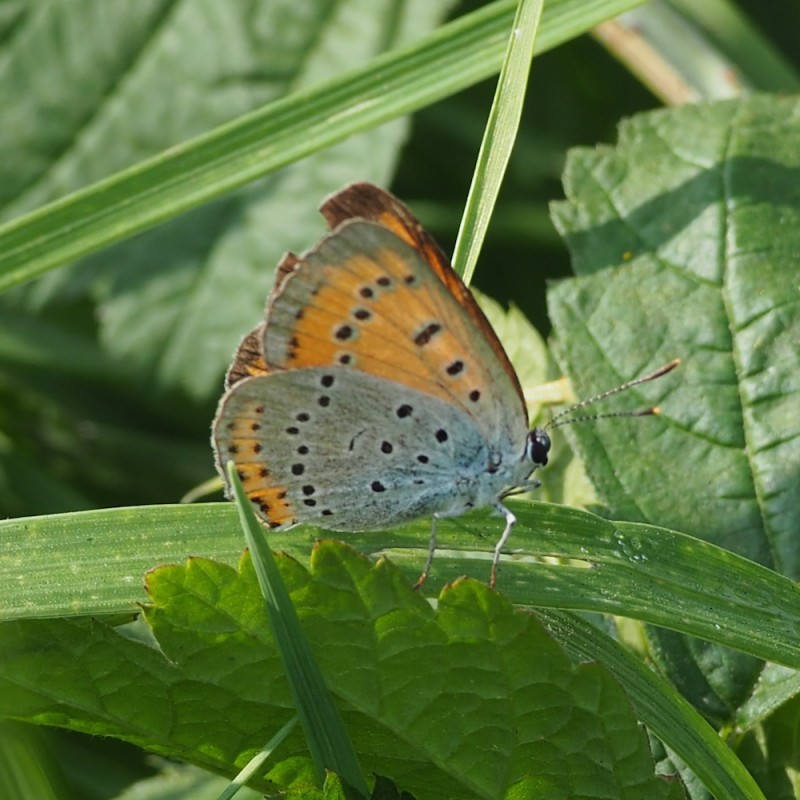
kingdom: Animalia
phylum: Arthropoda
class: Insecta
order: Lepidoptera
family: Lycaenidae
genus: Lycaena
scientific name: Lycaena dispar
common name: Large copper
